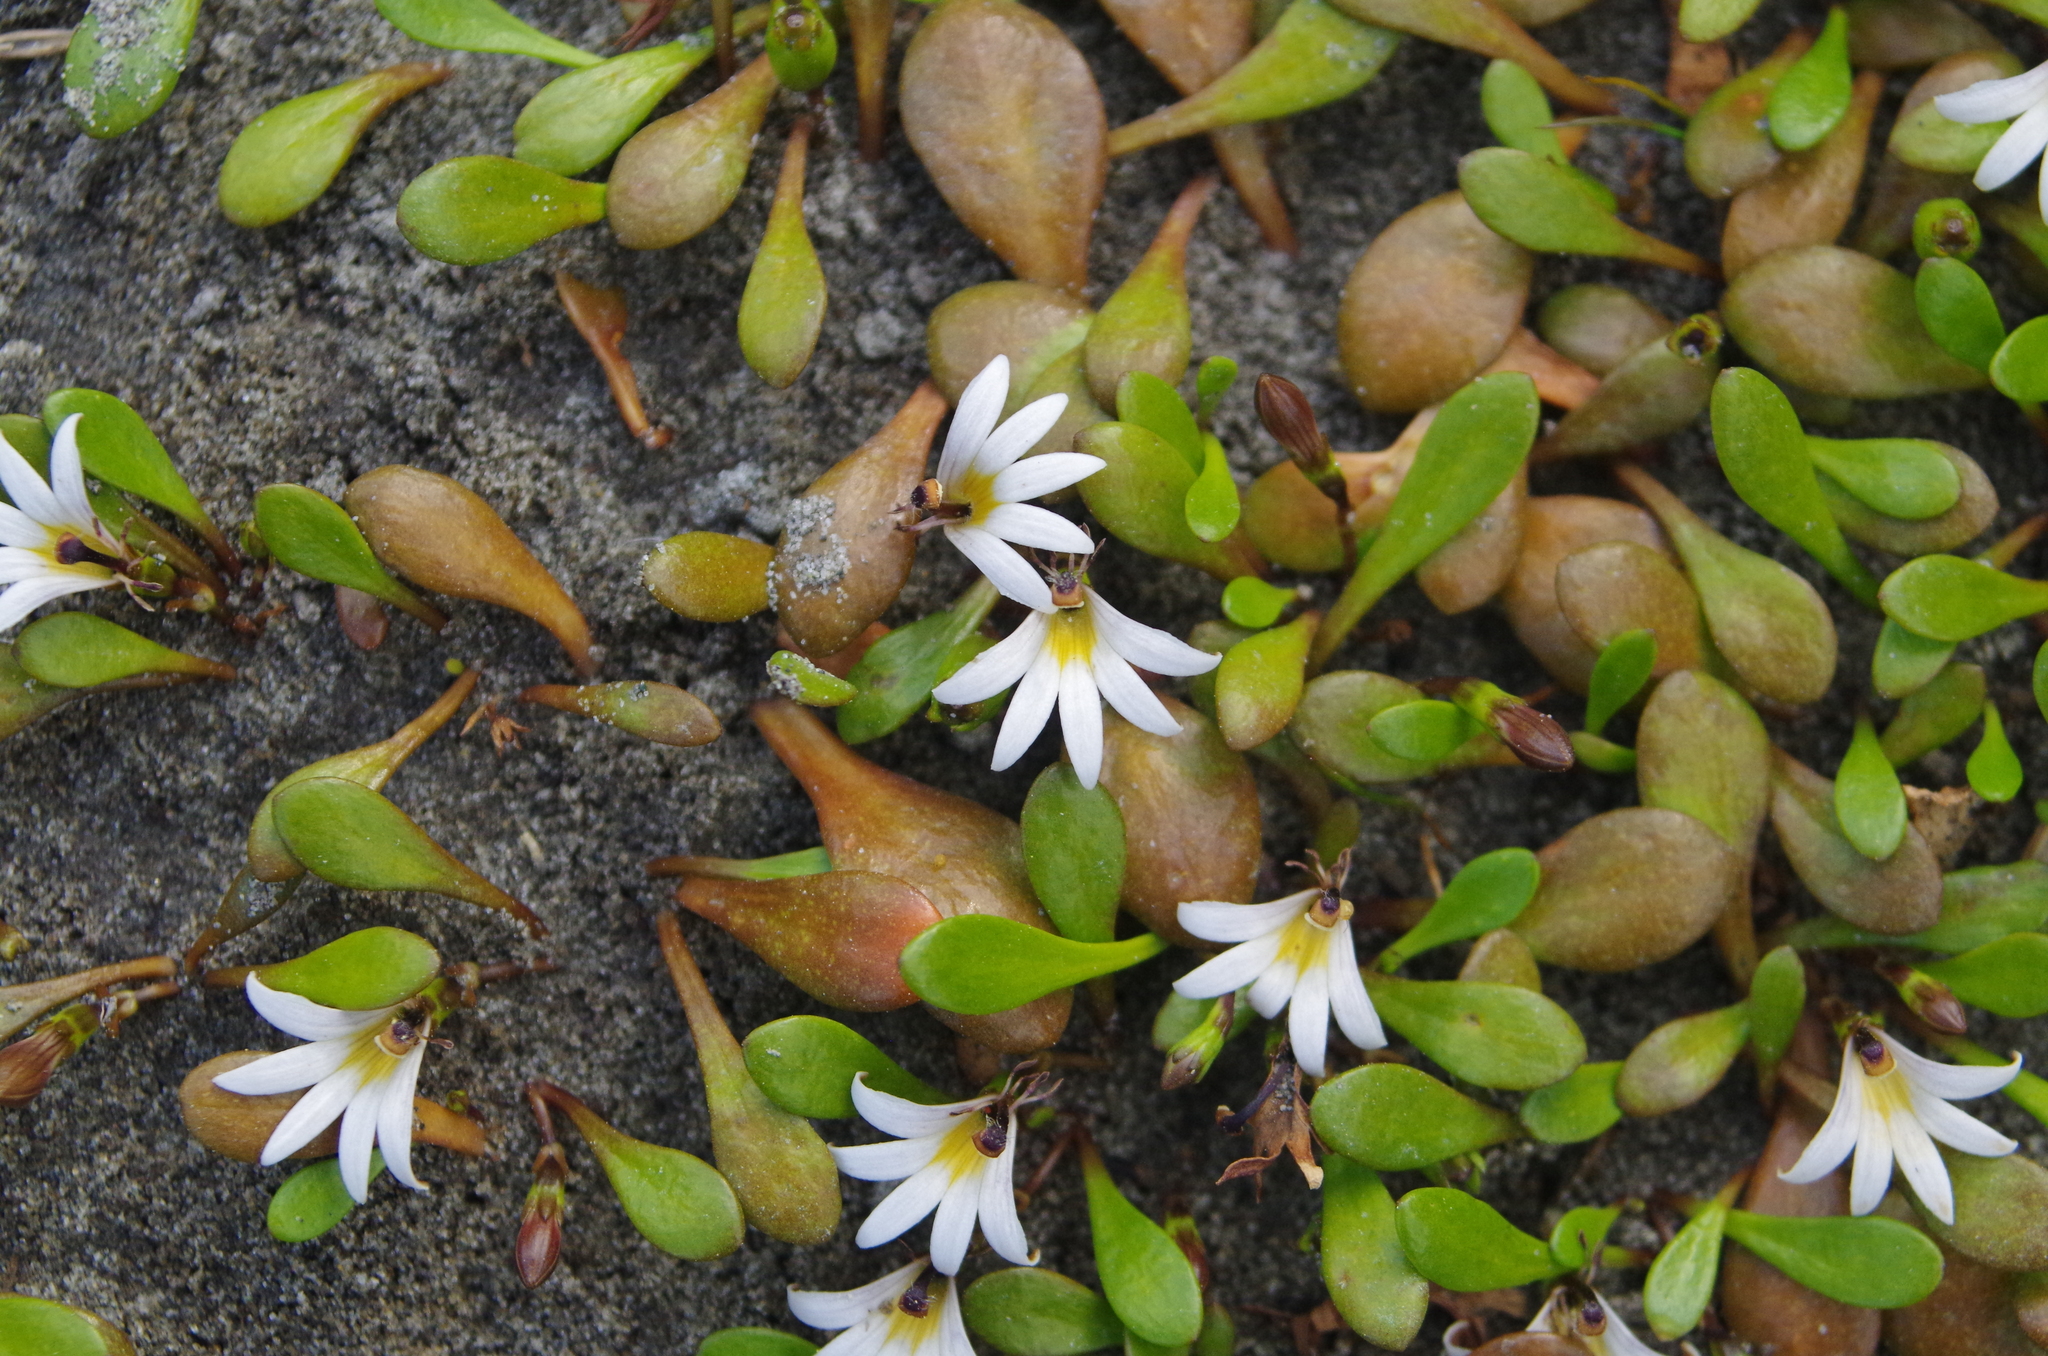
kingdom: Plantae
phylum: Tracheophyta
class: Magnoliopsida
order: Asterales
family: Goodeniaceae
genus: Goodenia
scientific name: Goodenia radicans
